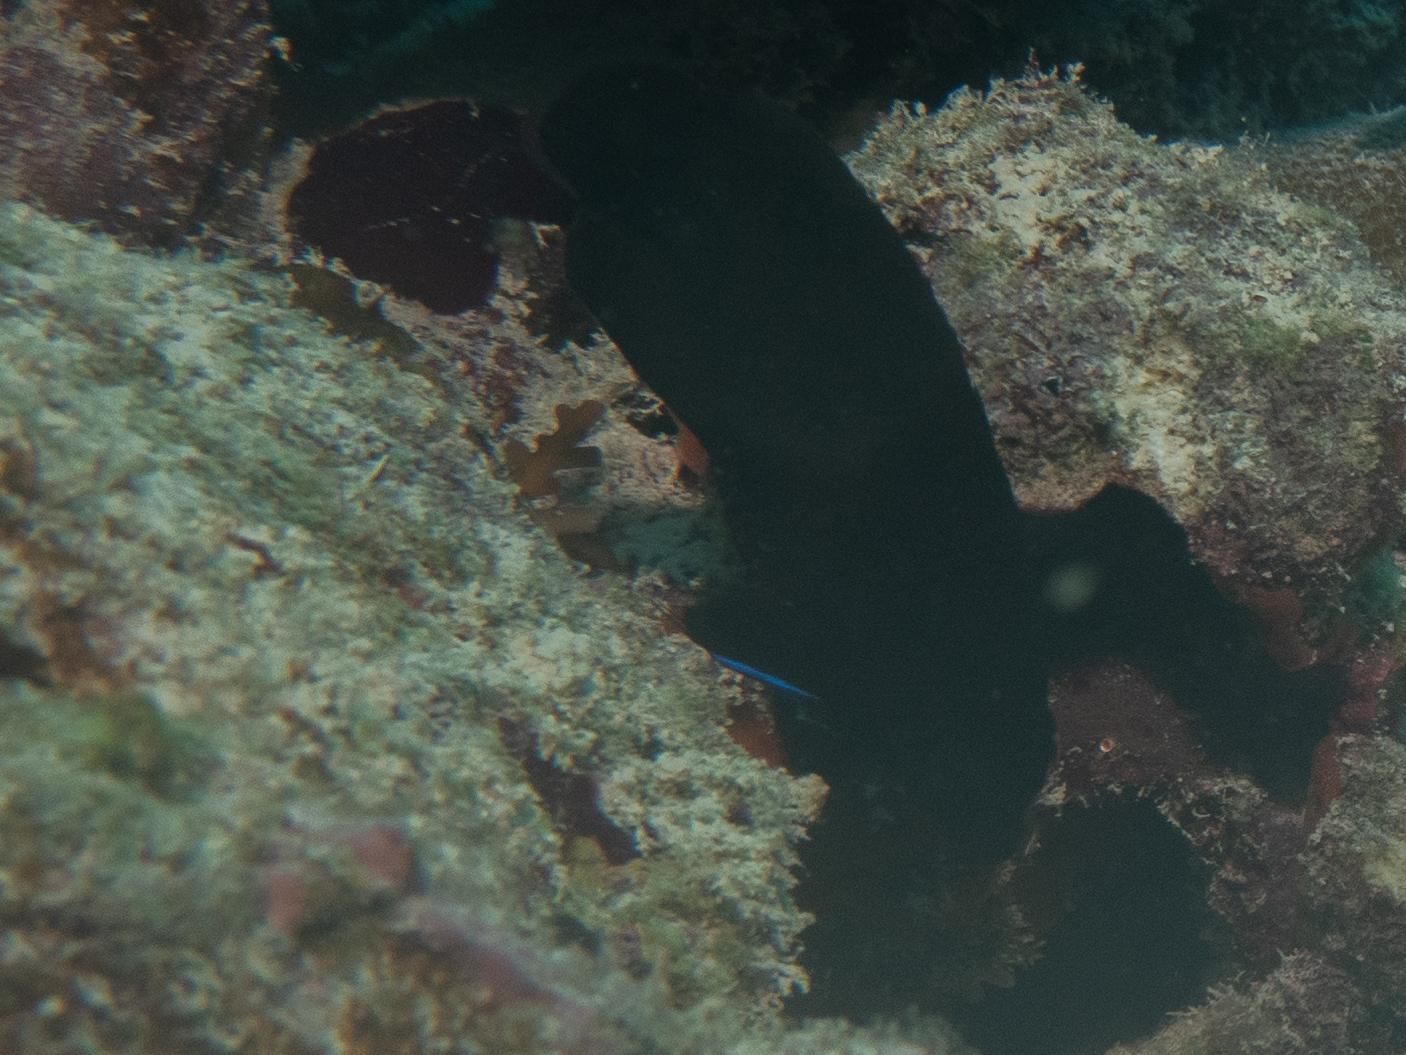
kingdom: Animalia
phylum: Chordata
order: Perciformes
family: Pomacanthidae
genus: Centropyge
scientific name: Centropyge multispinis
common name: Many-spined angelfish
